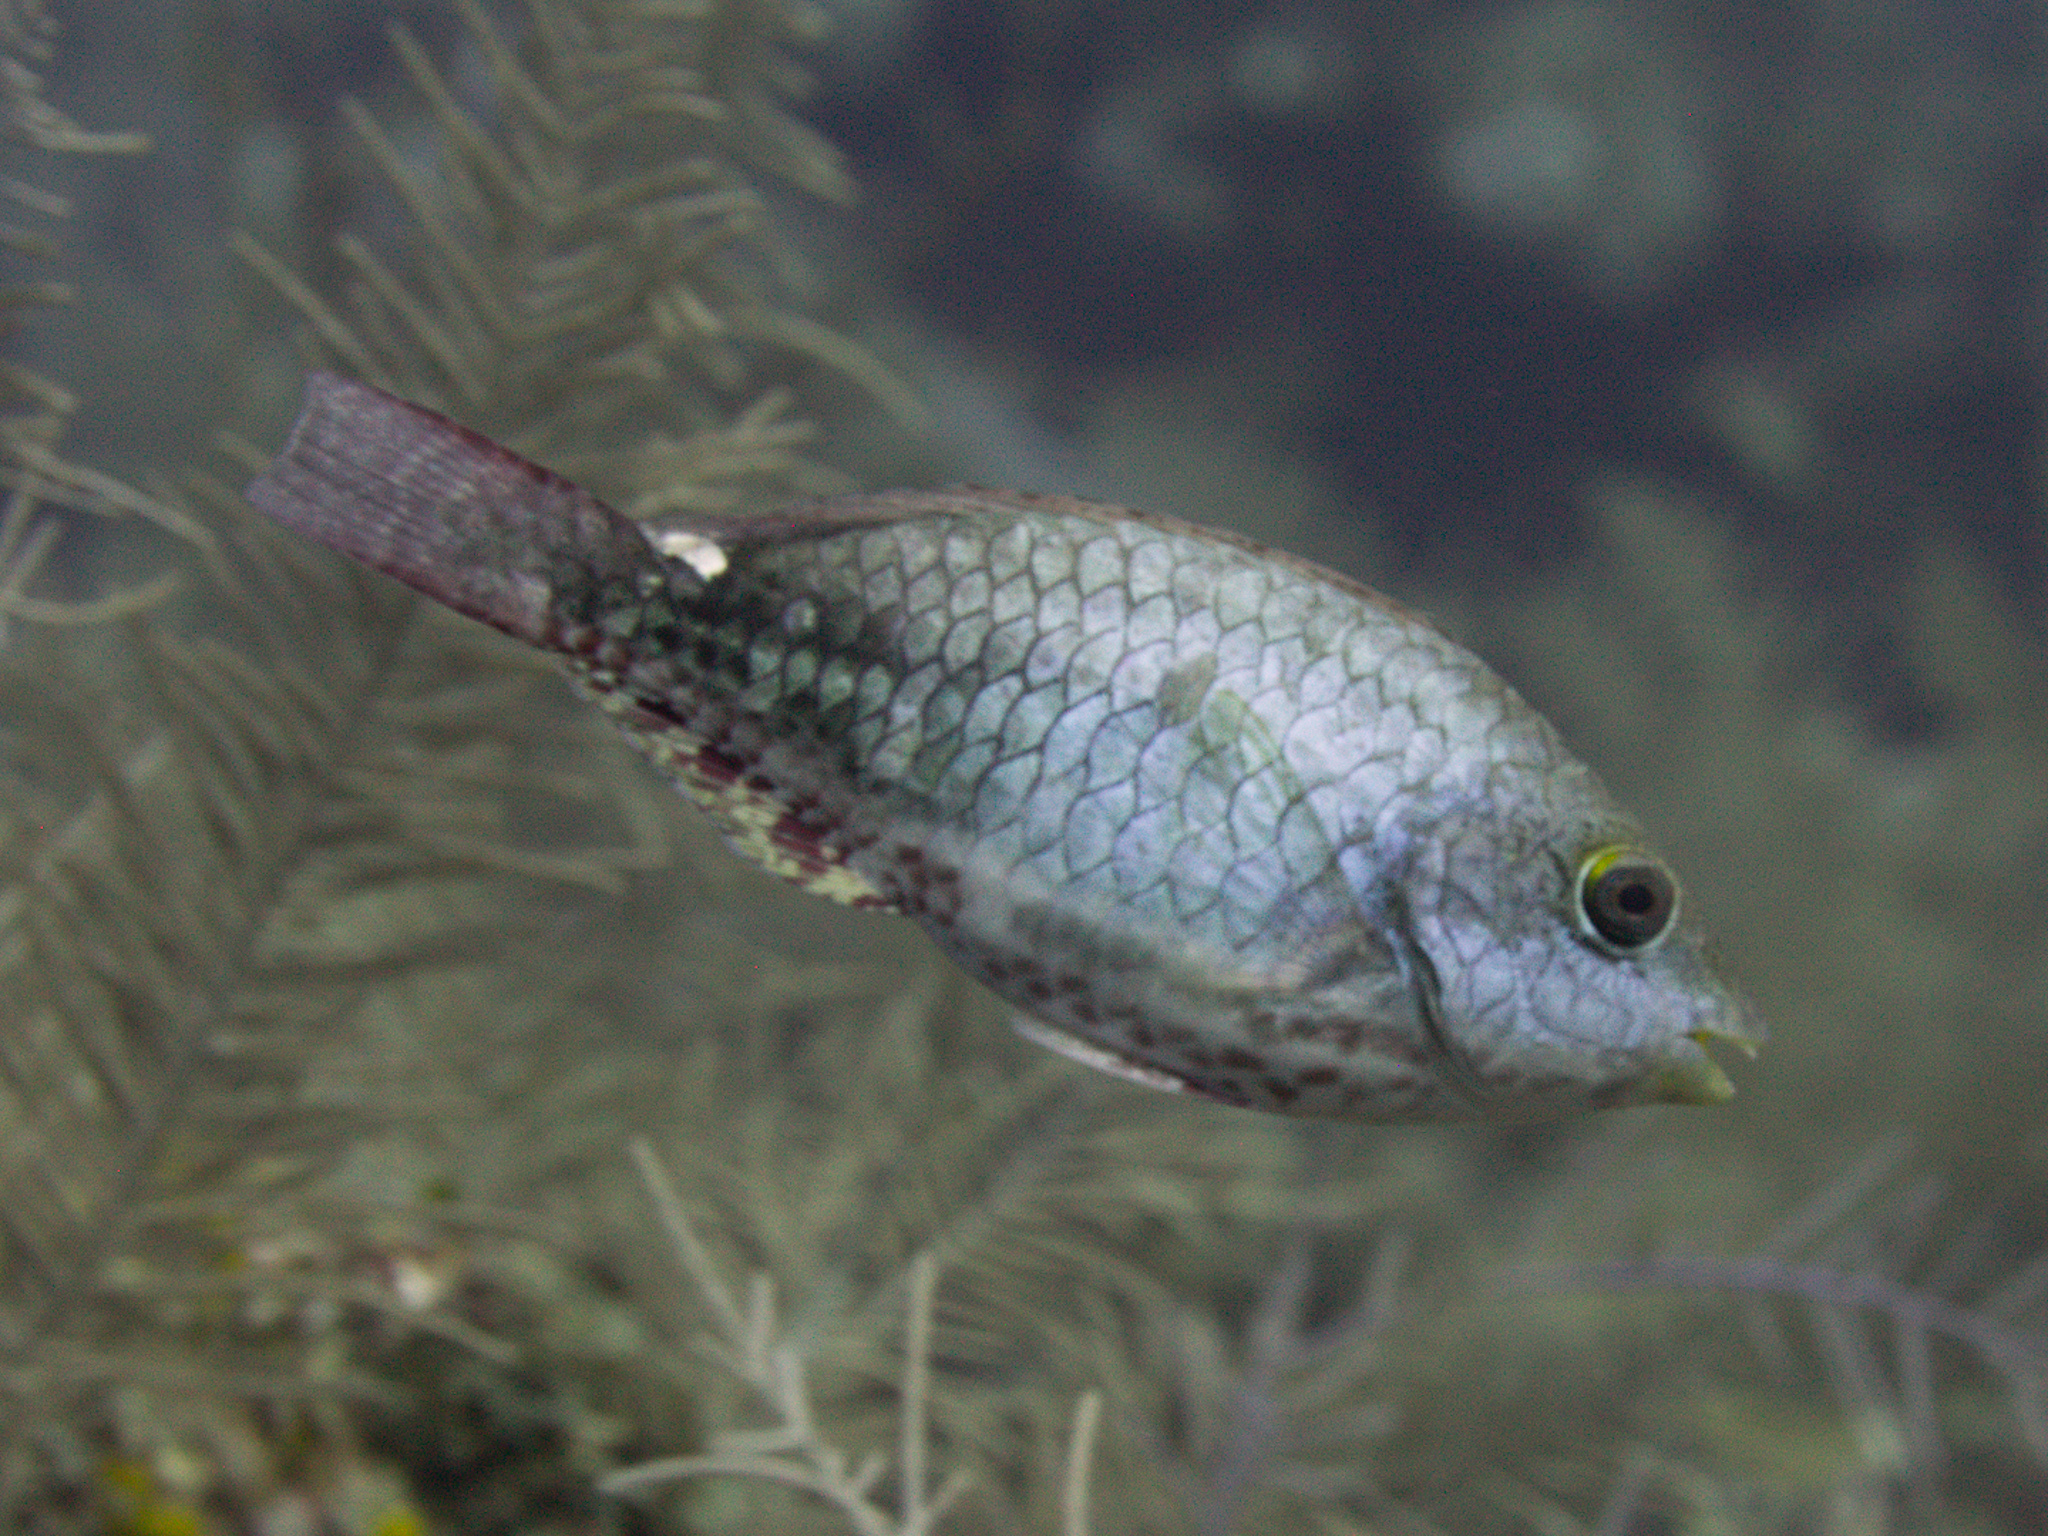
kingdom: Animalia
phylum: Chordata
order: Perciformes
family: Scaridae
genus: Sparisoma
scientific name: Sparisoma aurofrenatum
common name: Redband parrotfish
